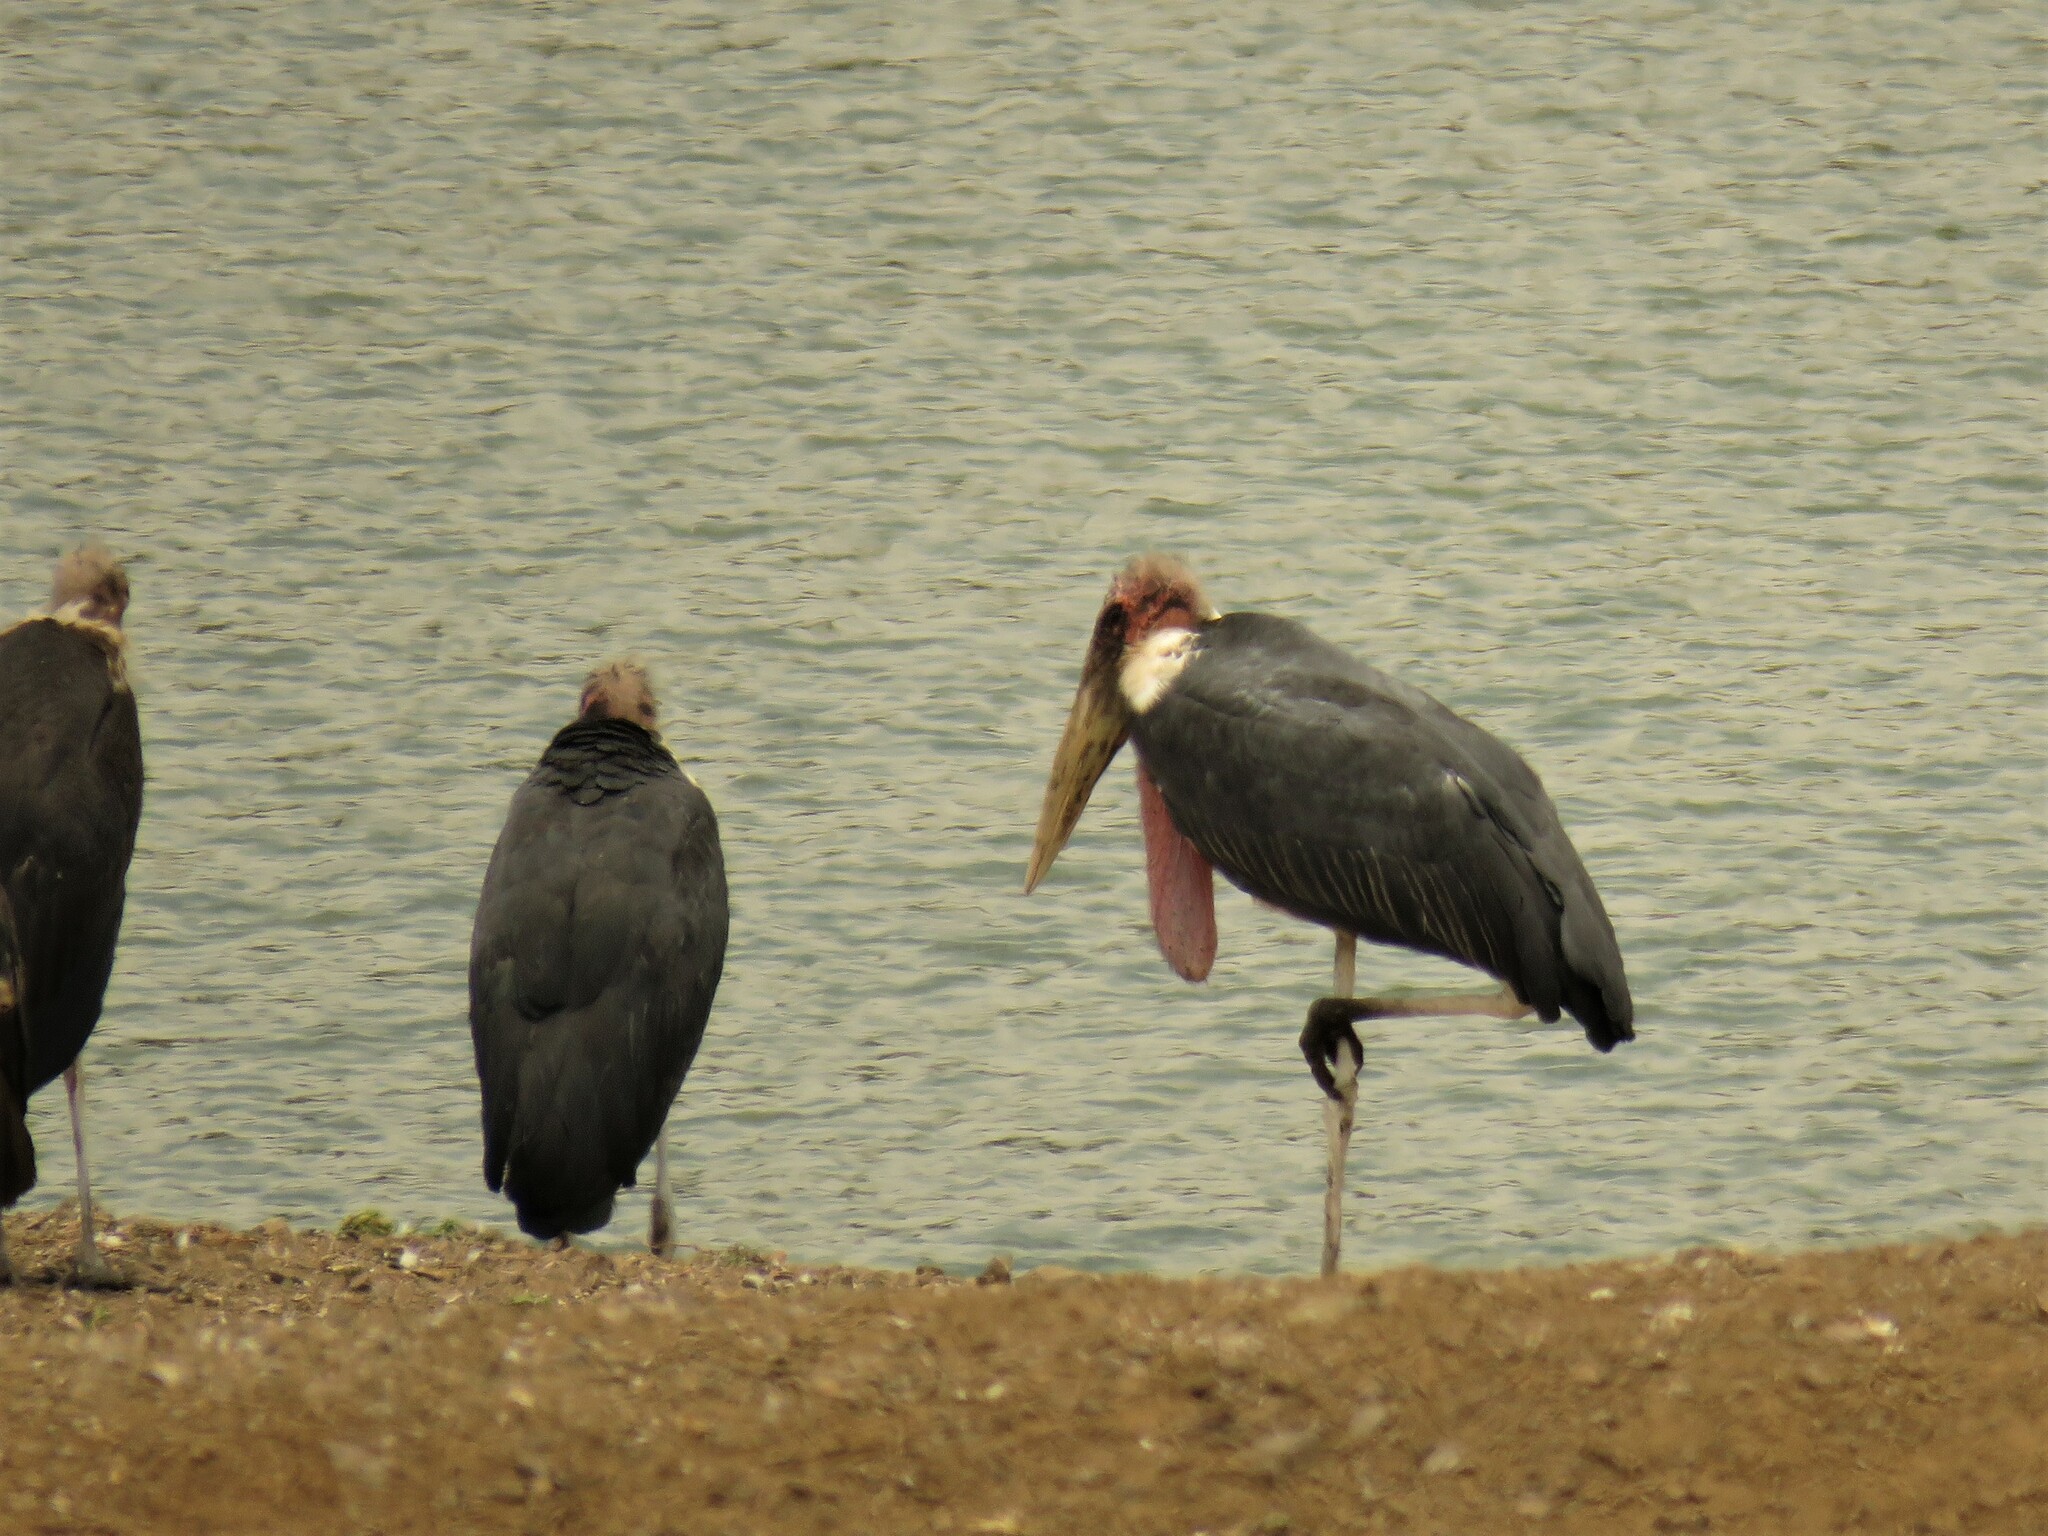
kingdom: Animalia
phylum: Chordata
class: Aves
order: Ciconiiformes
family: Ciconiidae
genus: Leptoptilos
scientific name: Leptoptilos crumenifer
